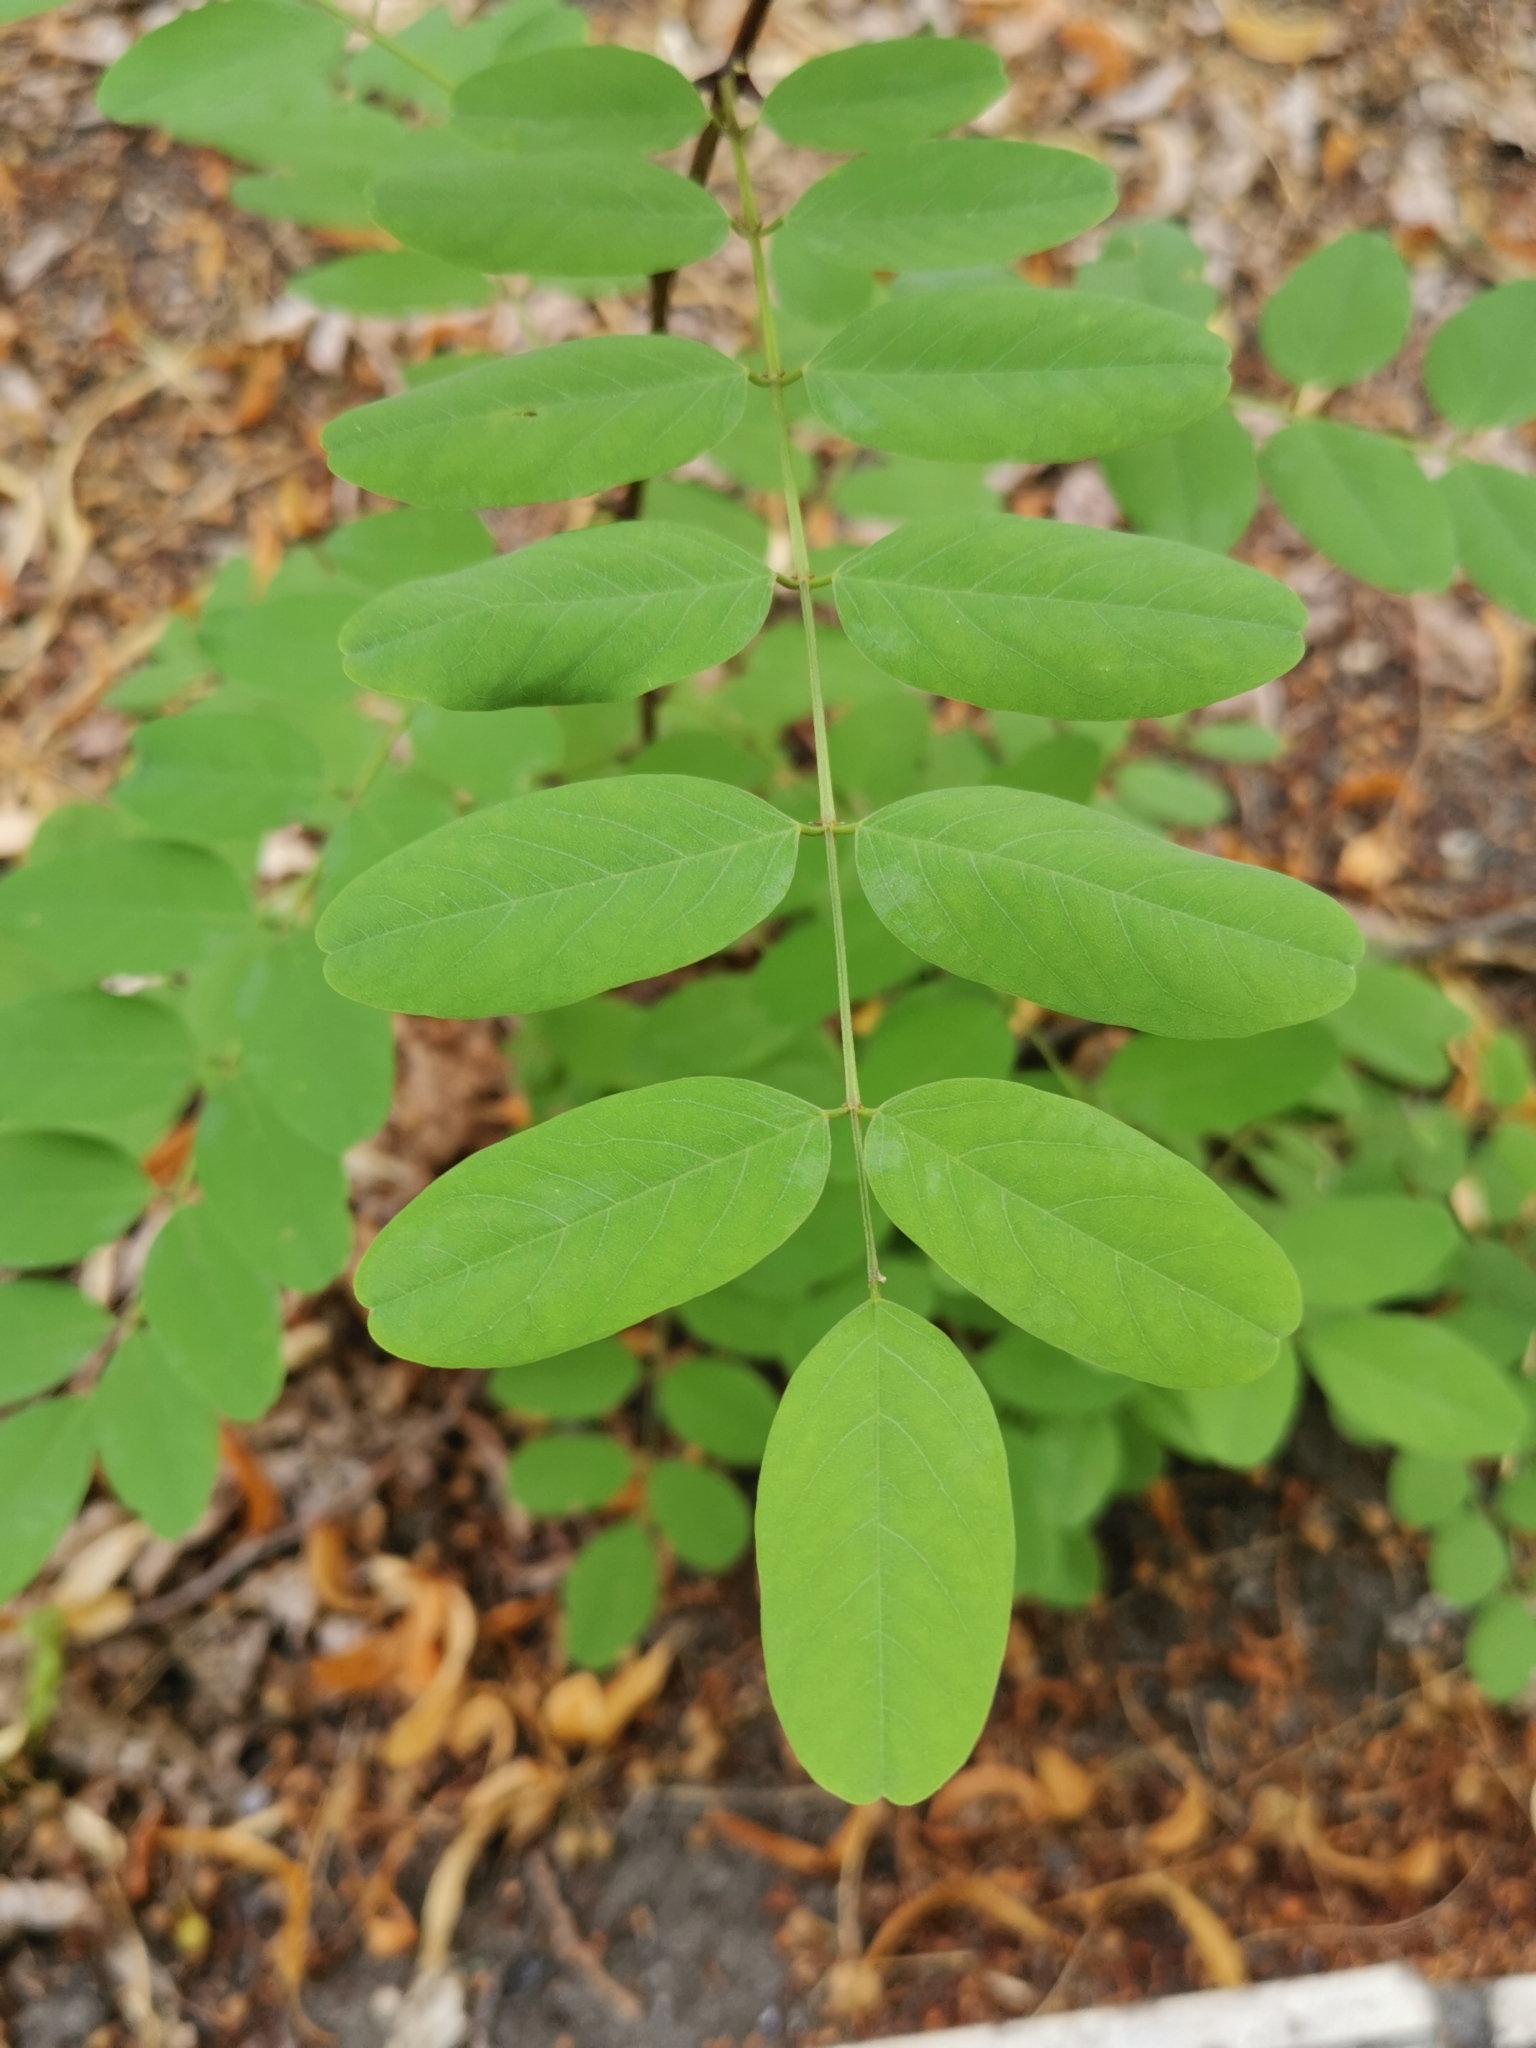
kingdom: Plantae
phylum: Tracheophyta
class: Magnoliopsida
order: Fabales
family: Fabaceae
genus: Robinia
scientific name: Robinia pseudoacacia
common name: Black locust
